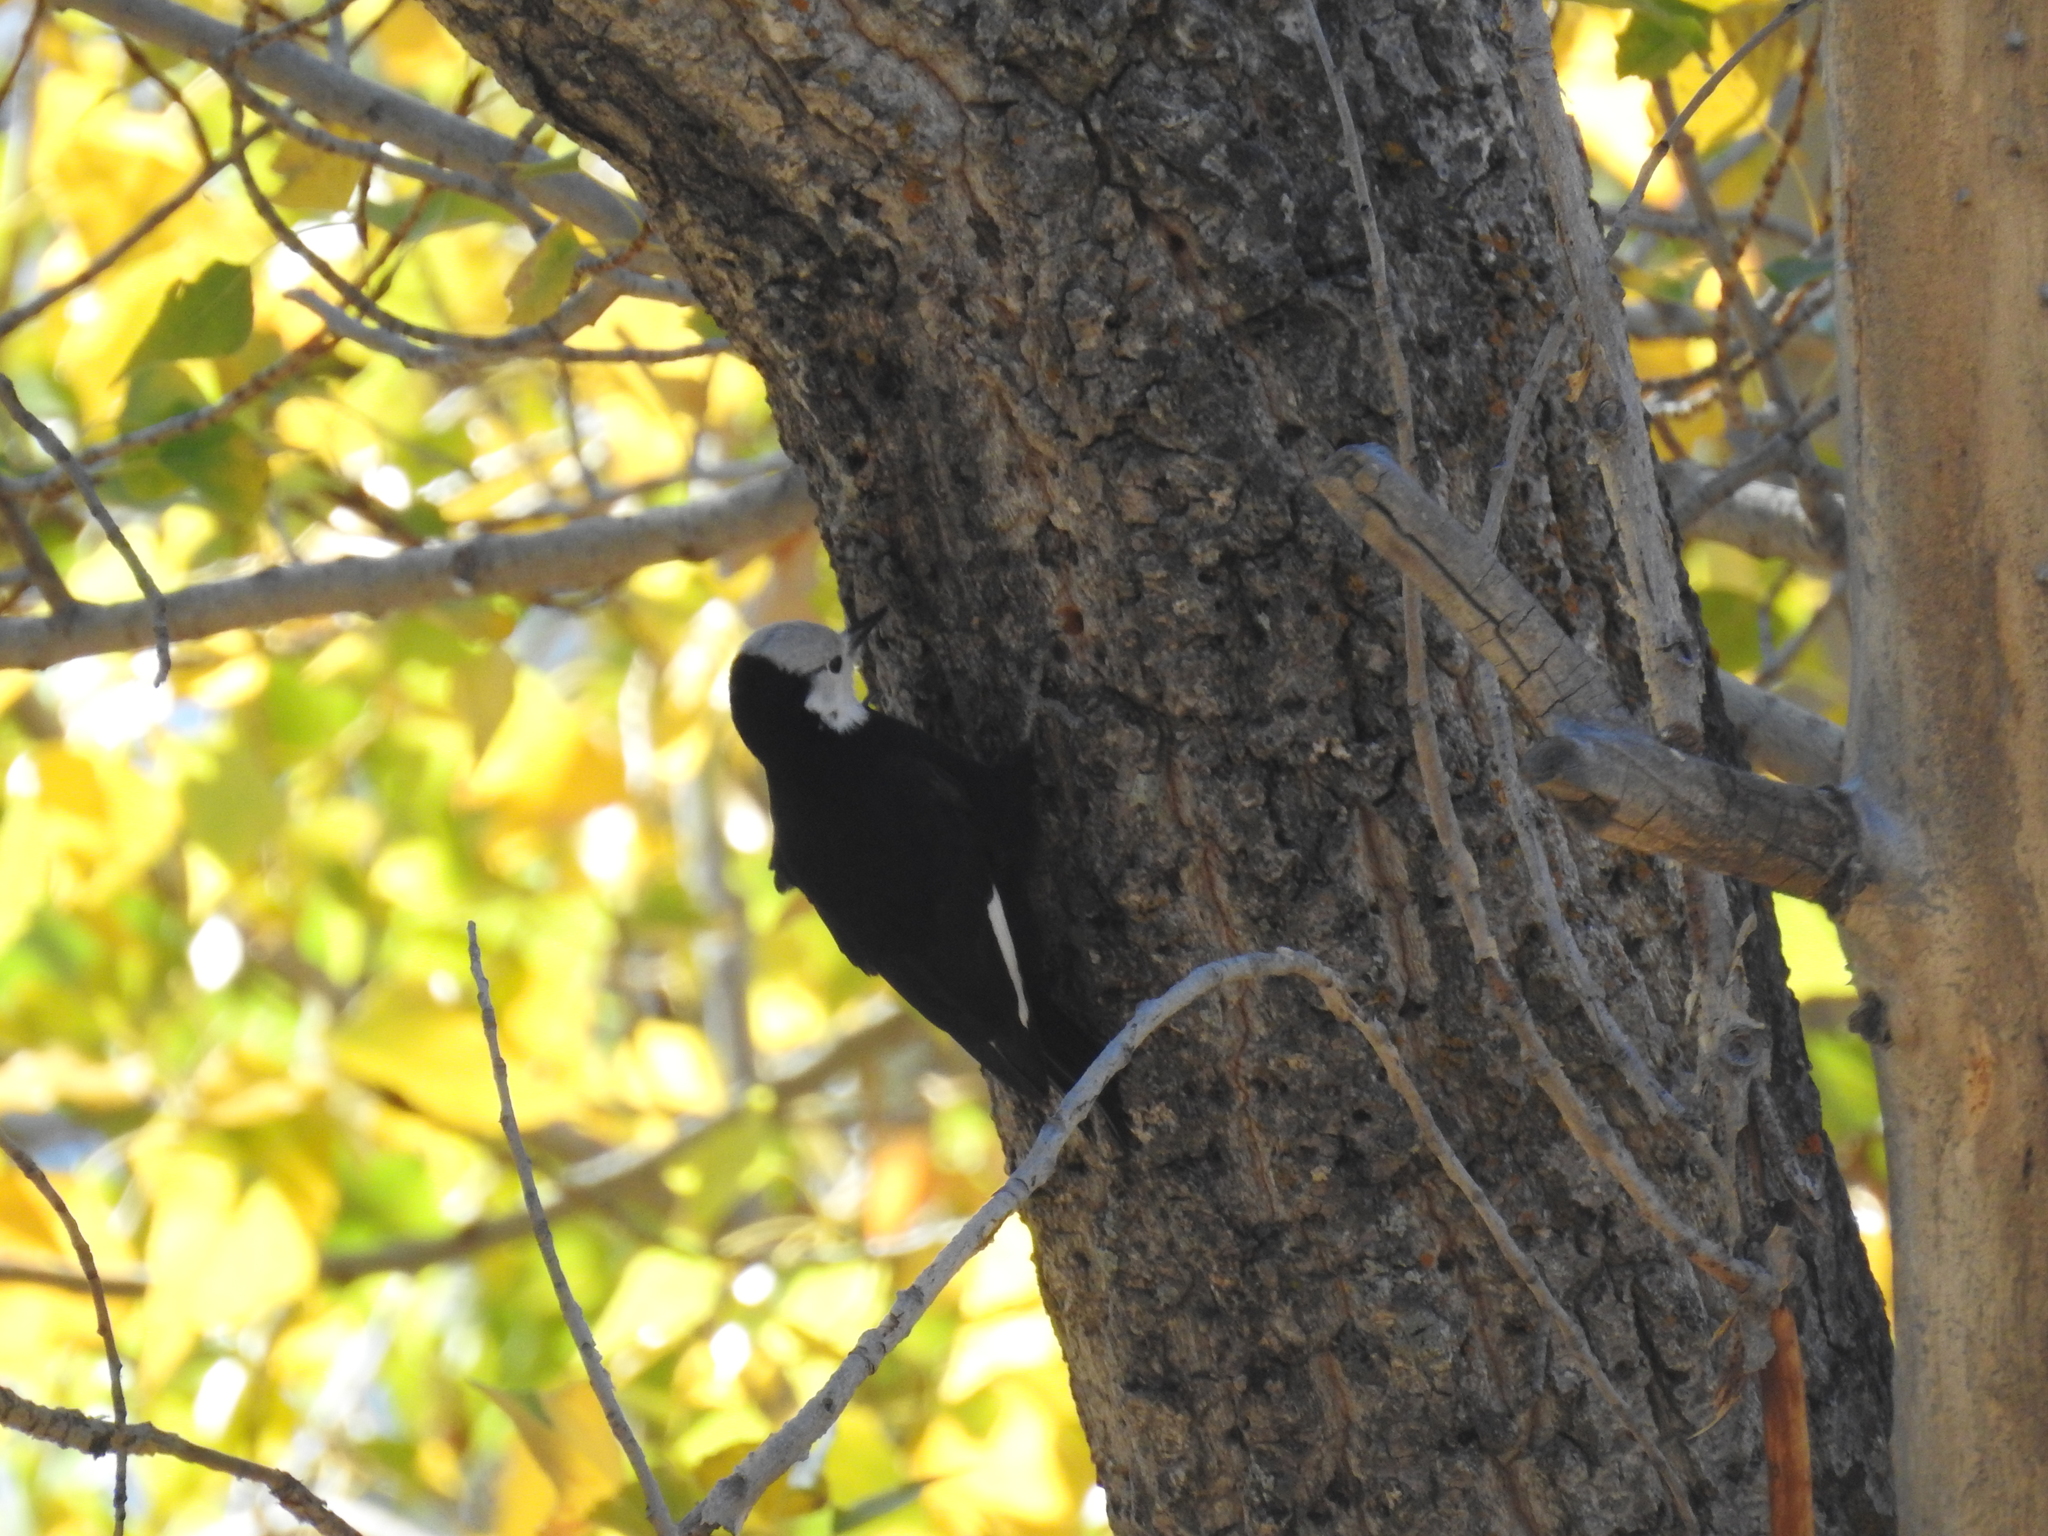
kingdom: Animalia
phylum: Chordata
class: Aves
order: Piciformes
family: Picidae
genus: Leuconotopicus
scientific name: Leuconotopicus albolarvatus
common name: White-headed woodpecker
